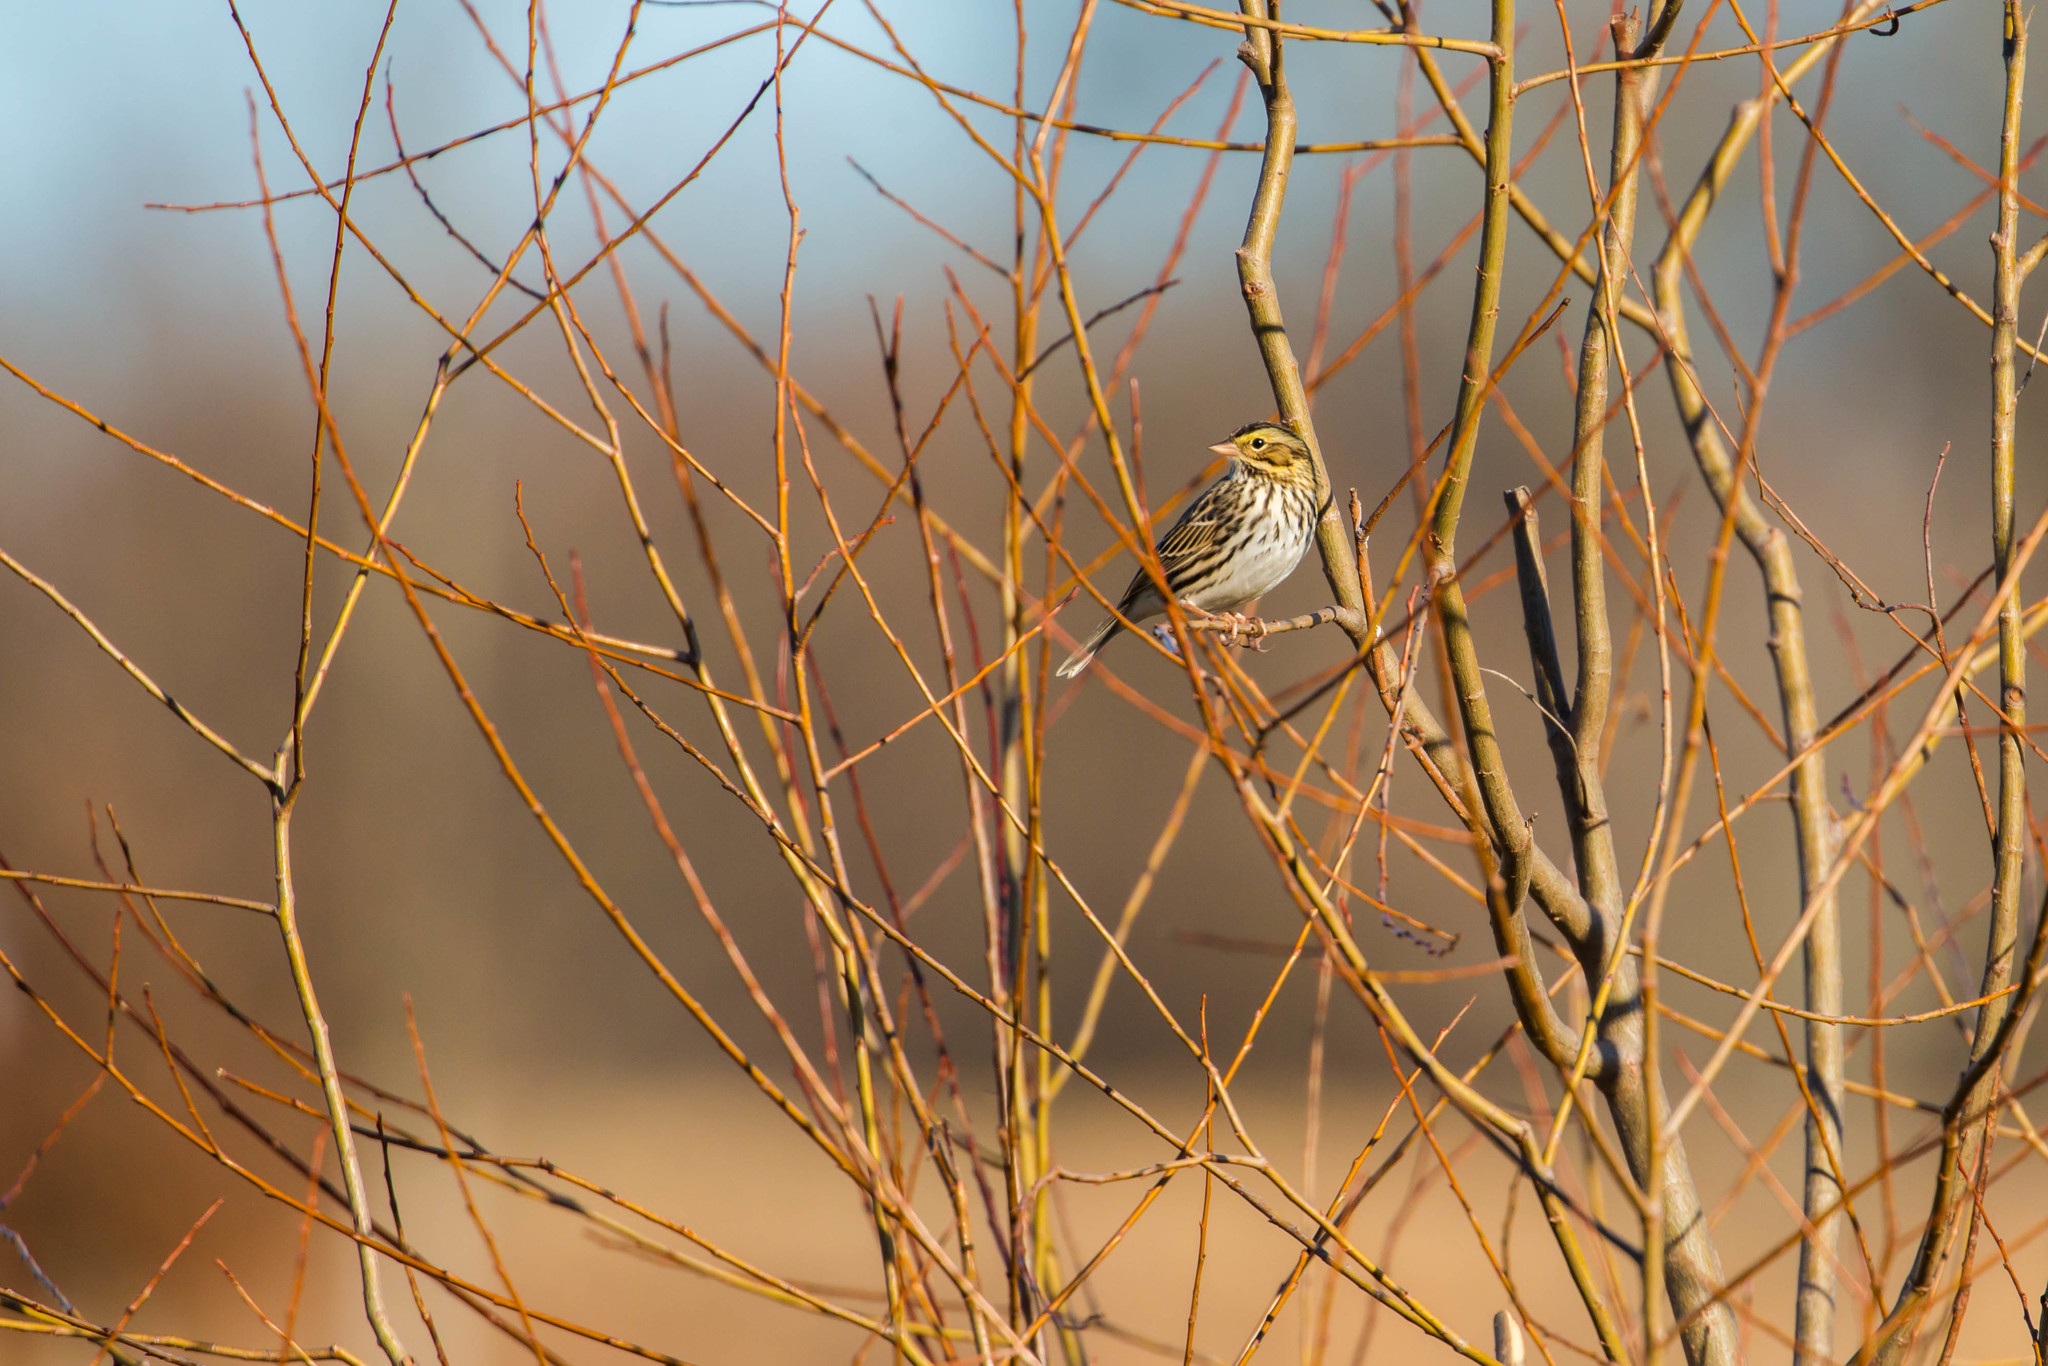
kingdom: Animalia
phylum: Chordata
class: Aves
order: Passeriformes
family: Passerellidae
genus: Passerculus
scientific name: Passerculus sandwichensis
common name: Savannah sparrow
